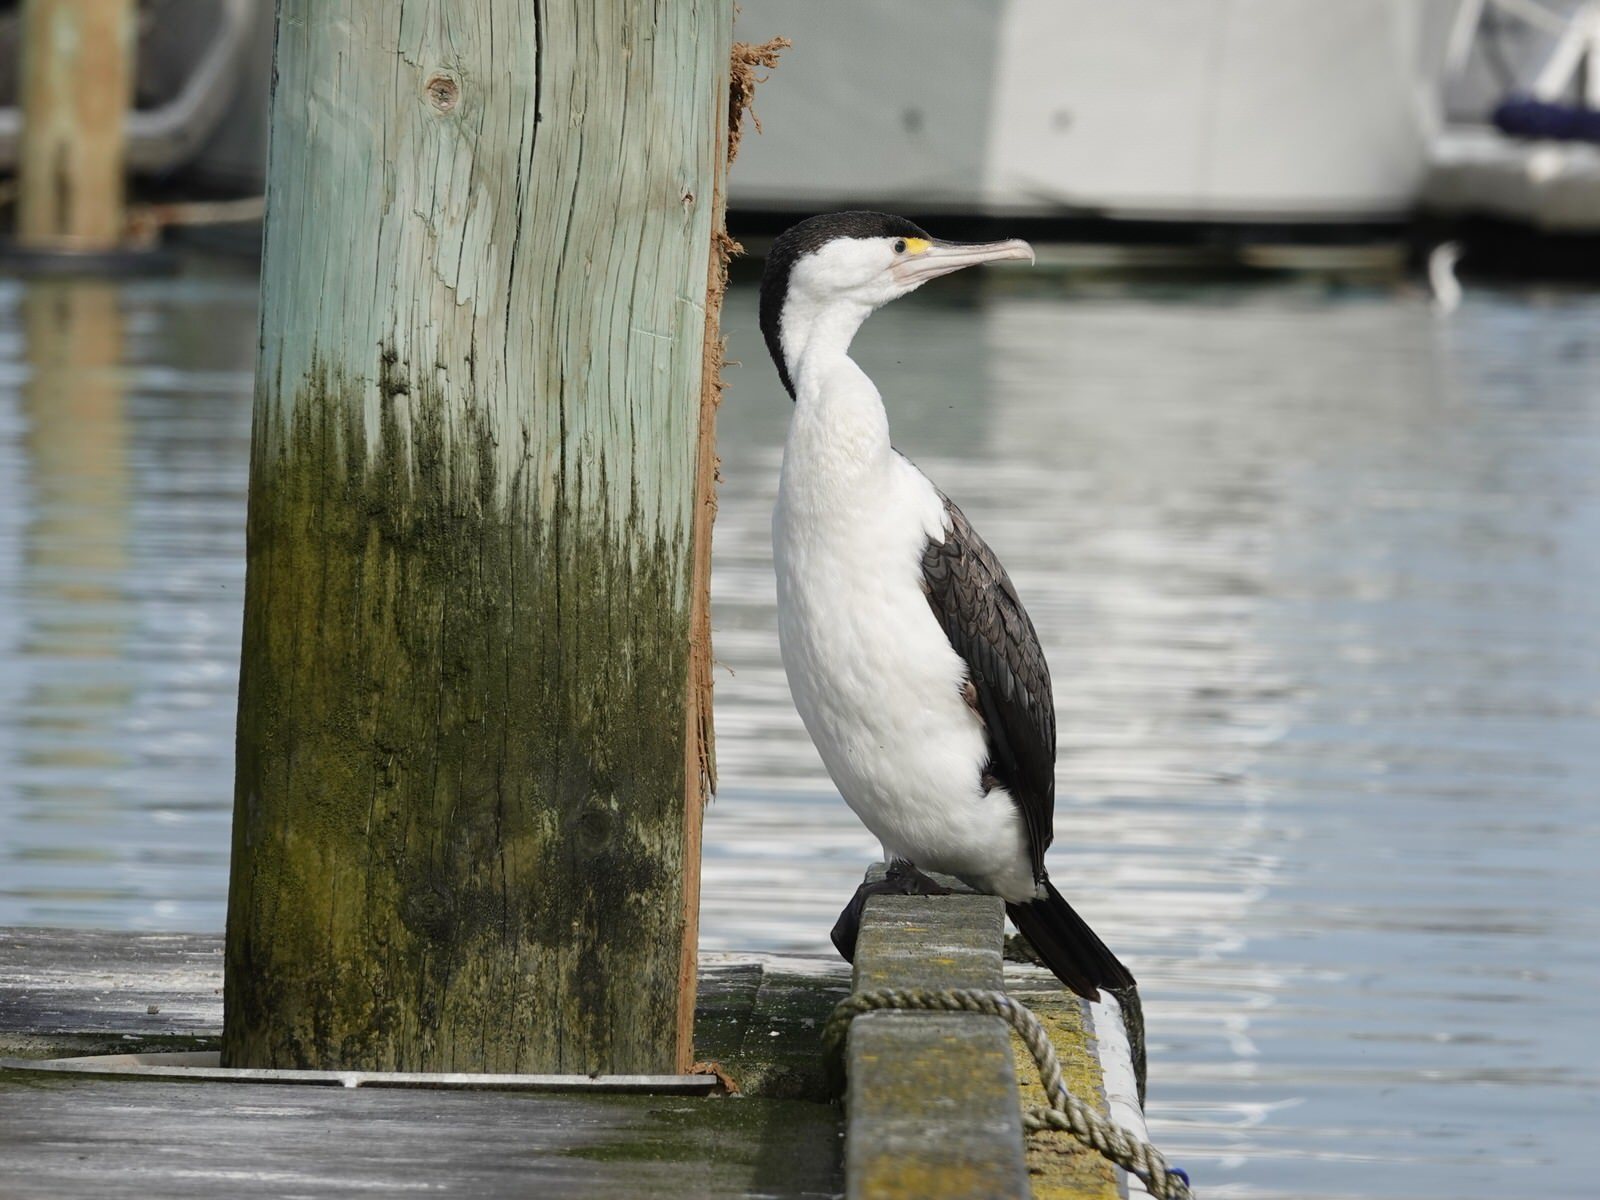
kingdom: Animalia
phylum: Chordata
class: Aves
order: Suliformes
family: Phalacrocoracidae
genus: Phalacrocorax
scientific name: Phalacrocorax varius
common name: Pied cormorant
